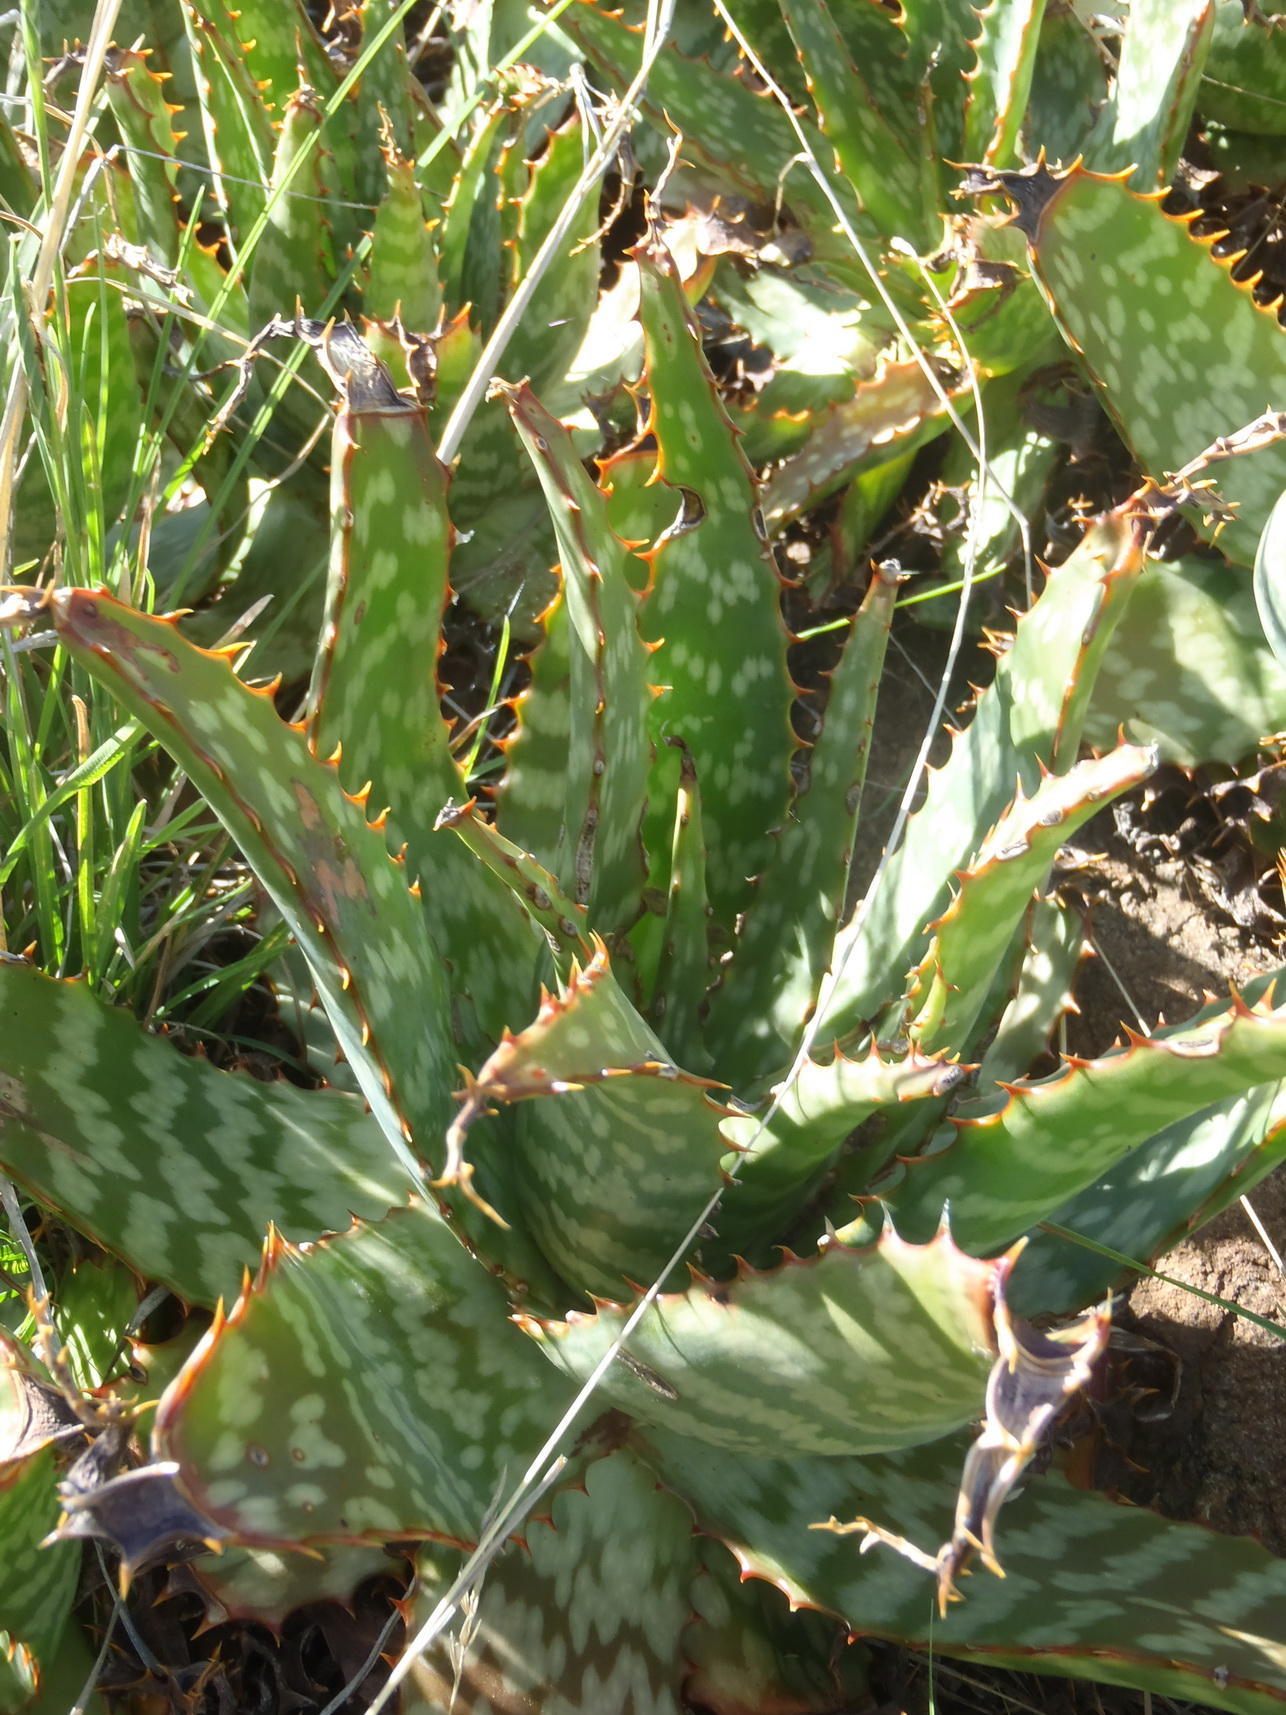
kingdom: Plantae
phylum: Tracheophyta
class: Liliopsida
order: Asparagales
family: Asphodelaceae
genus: Aloe
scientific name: Aloe grandidentata
